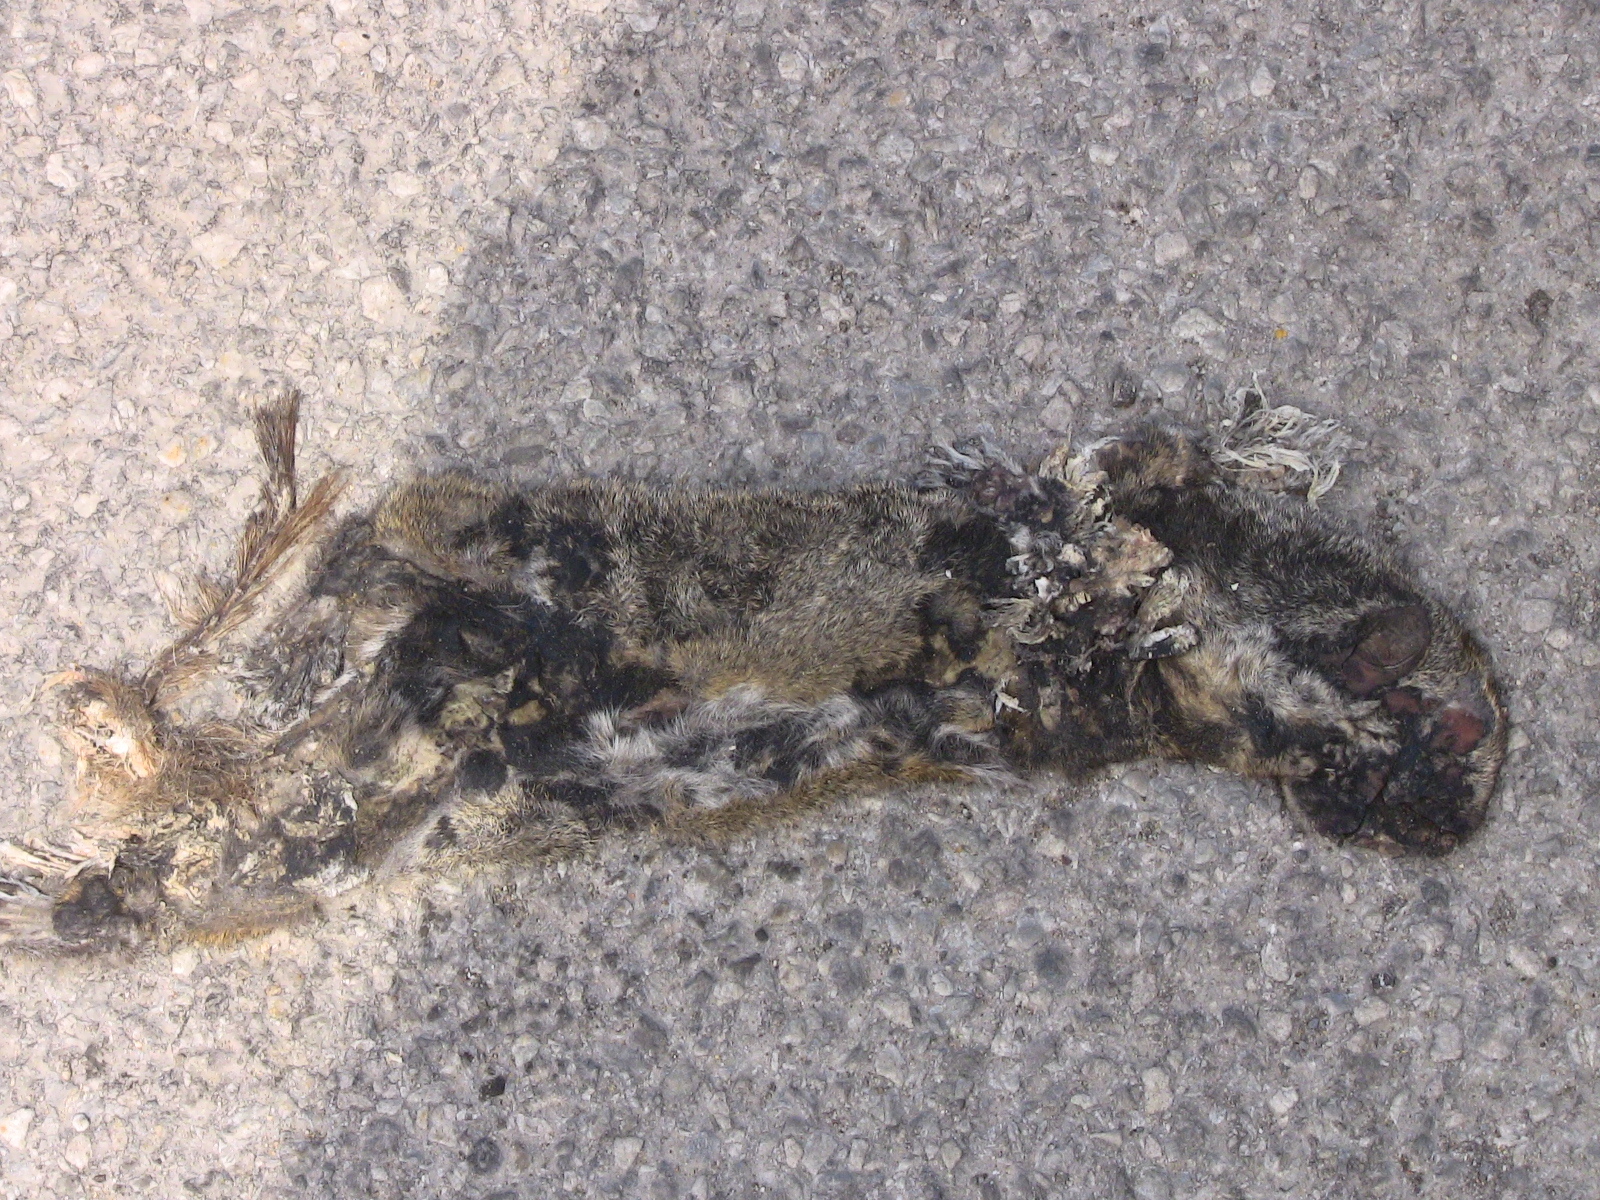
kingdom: Animalia
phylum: Chordata
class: Mammalia
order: Rodentia
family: Sciuridae
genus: Marmota
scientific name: Marmota monax
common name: Groundhog
